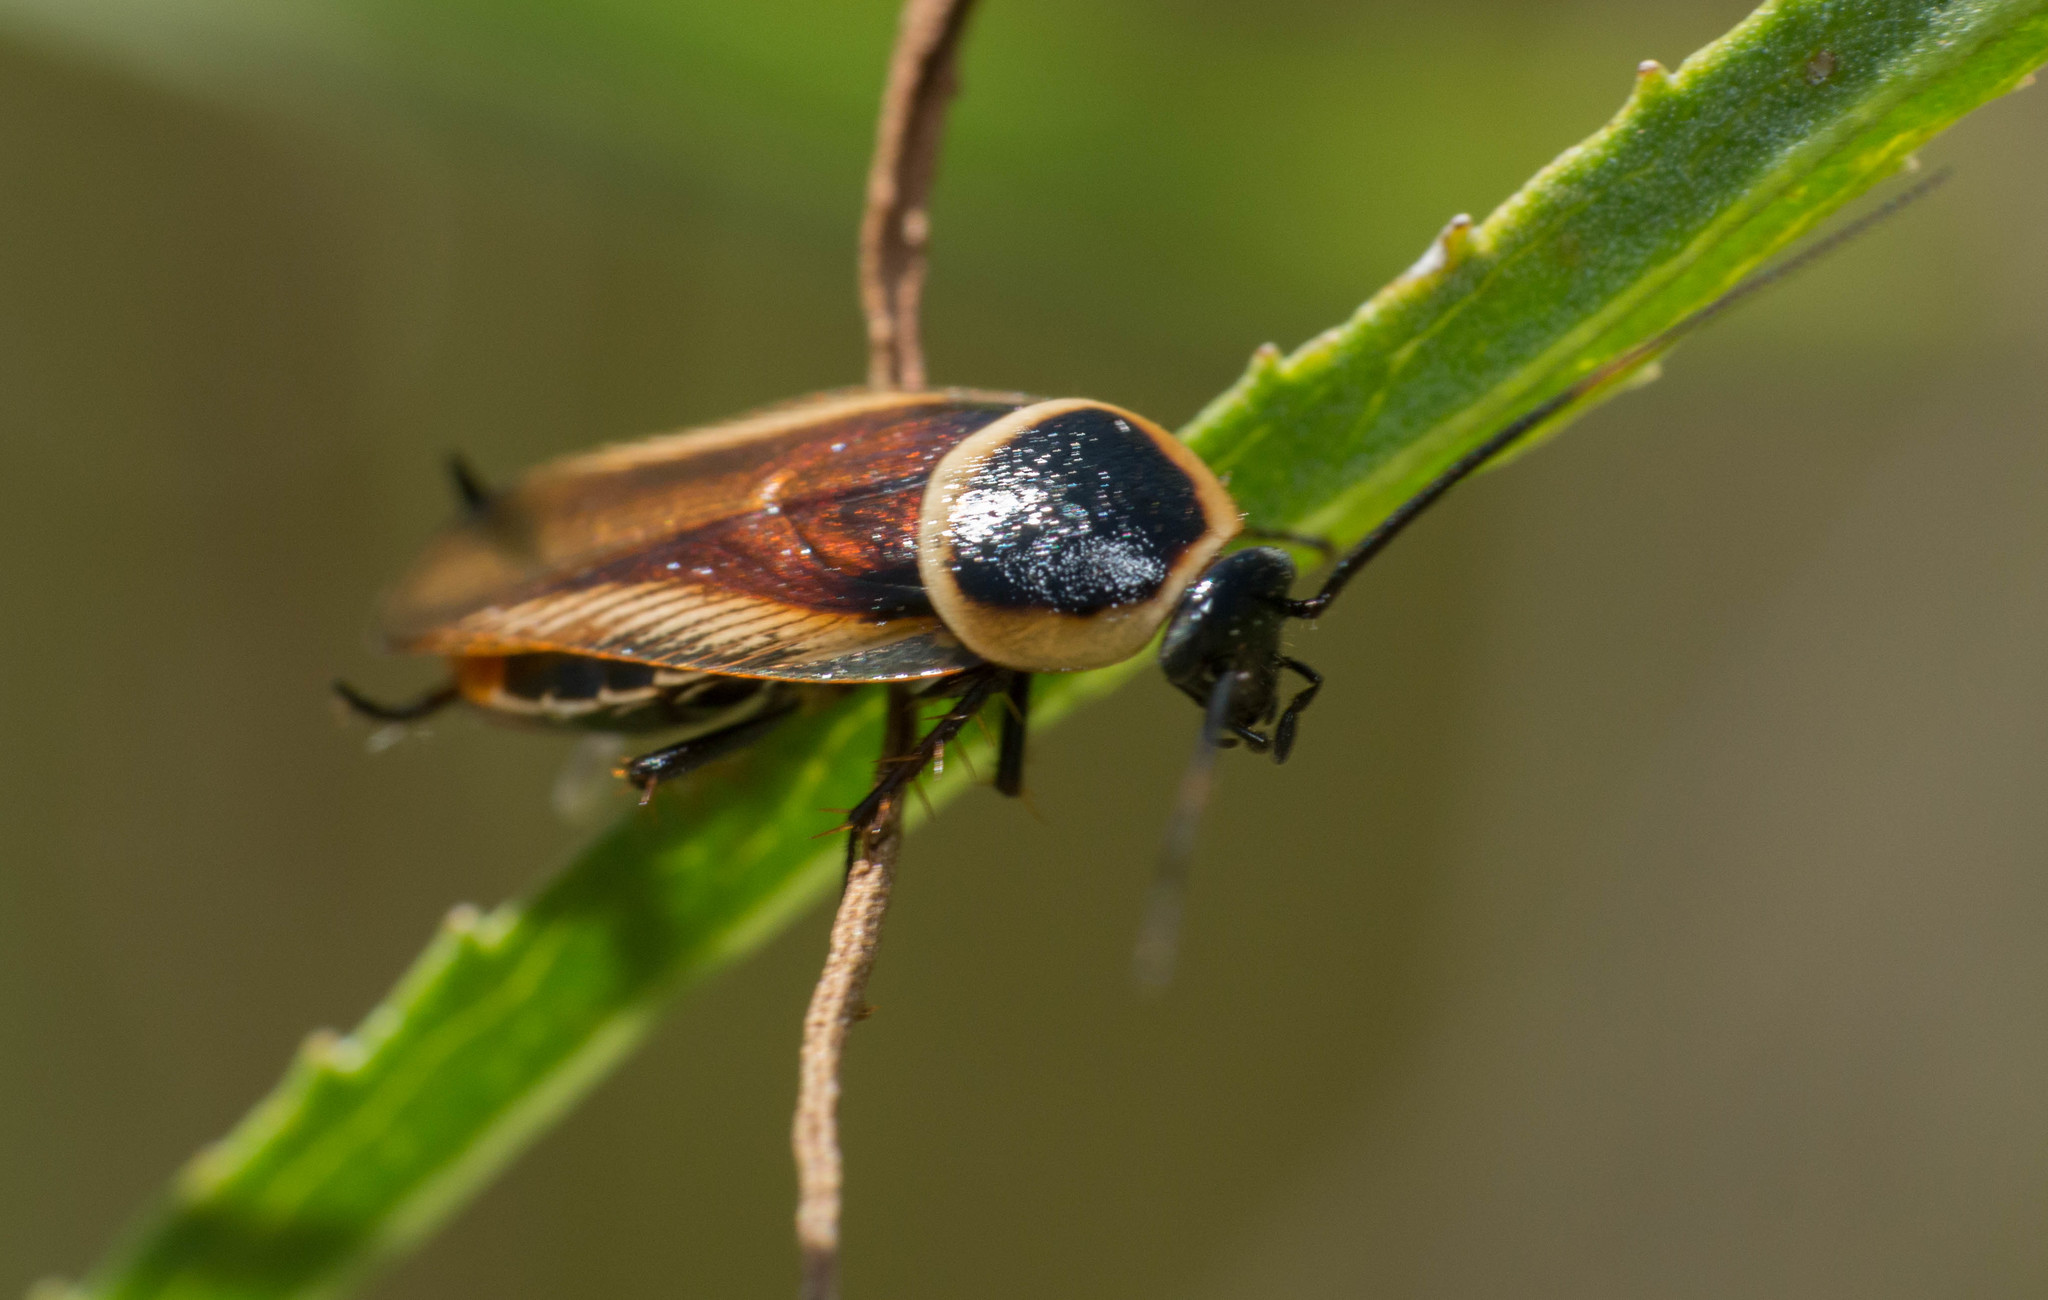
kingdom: Animalia
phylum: Arthropoda
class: Insecta
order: Blattodea
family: Ectobiidae
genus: Pseudomops
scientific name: Pseudomops neglectus
